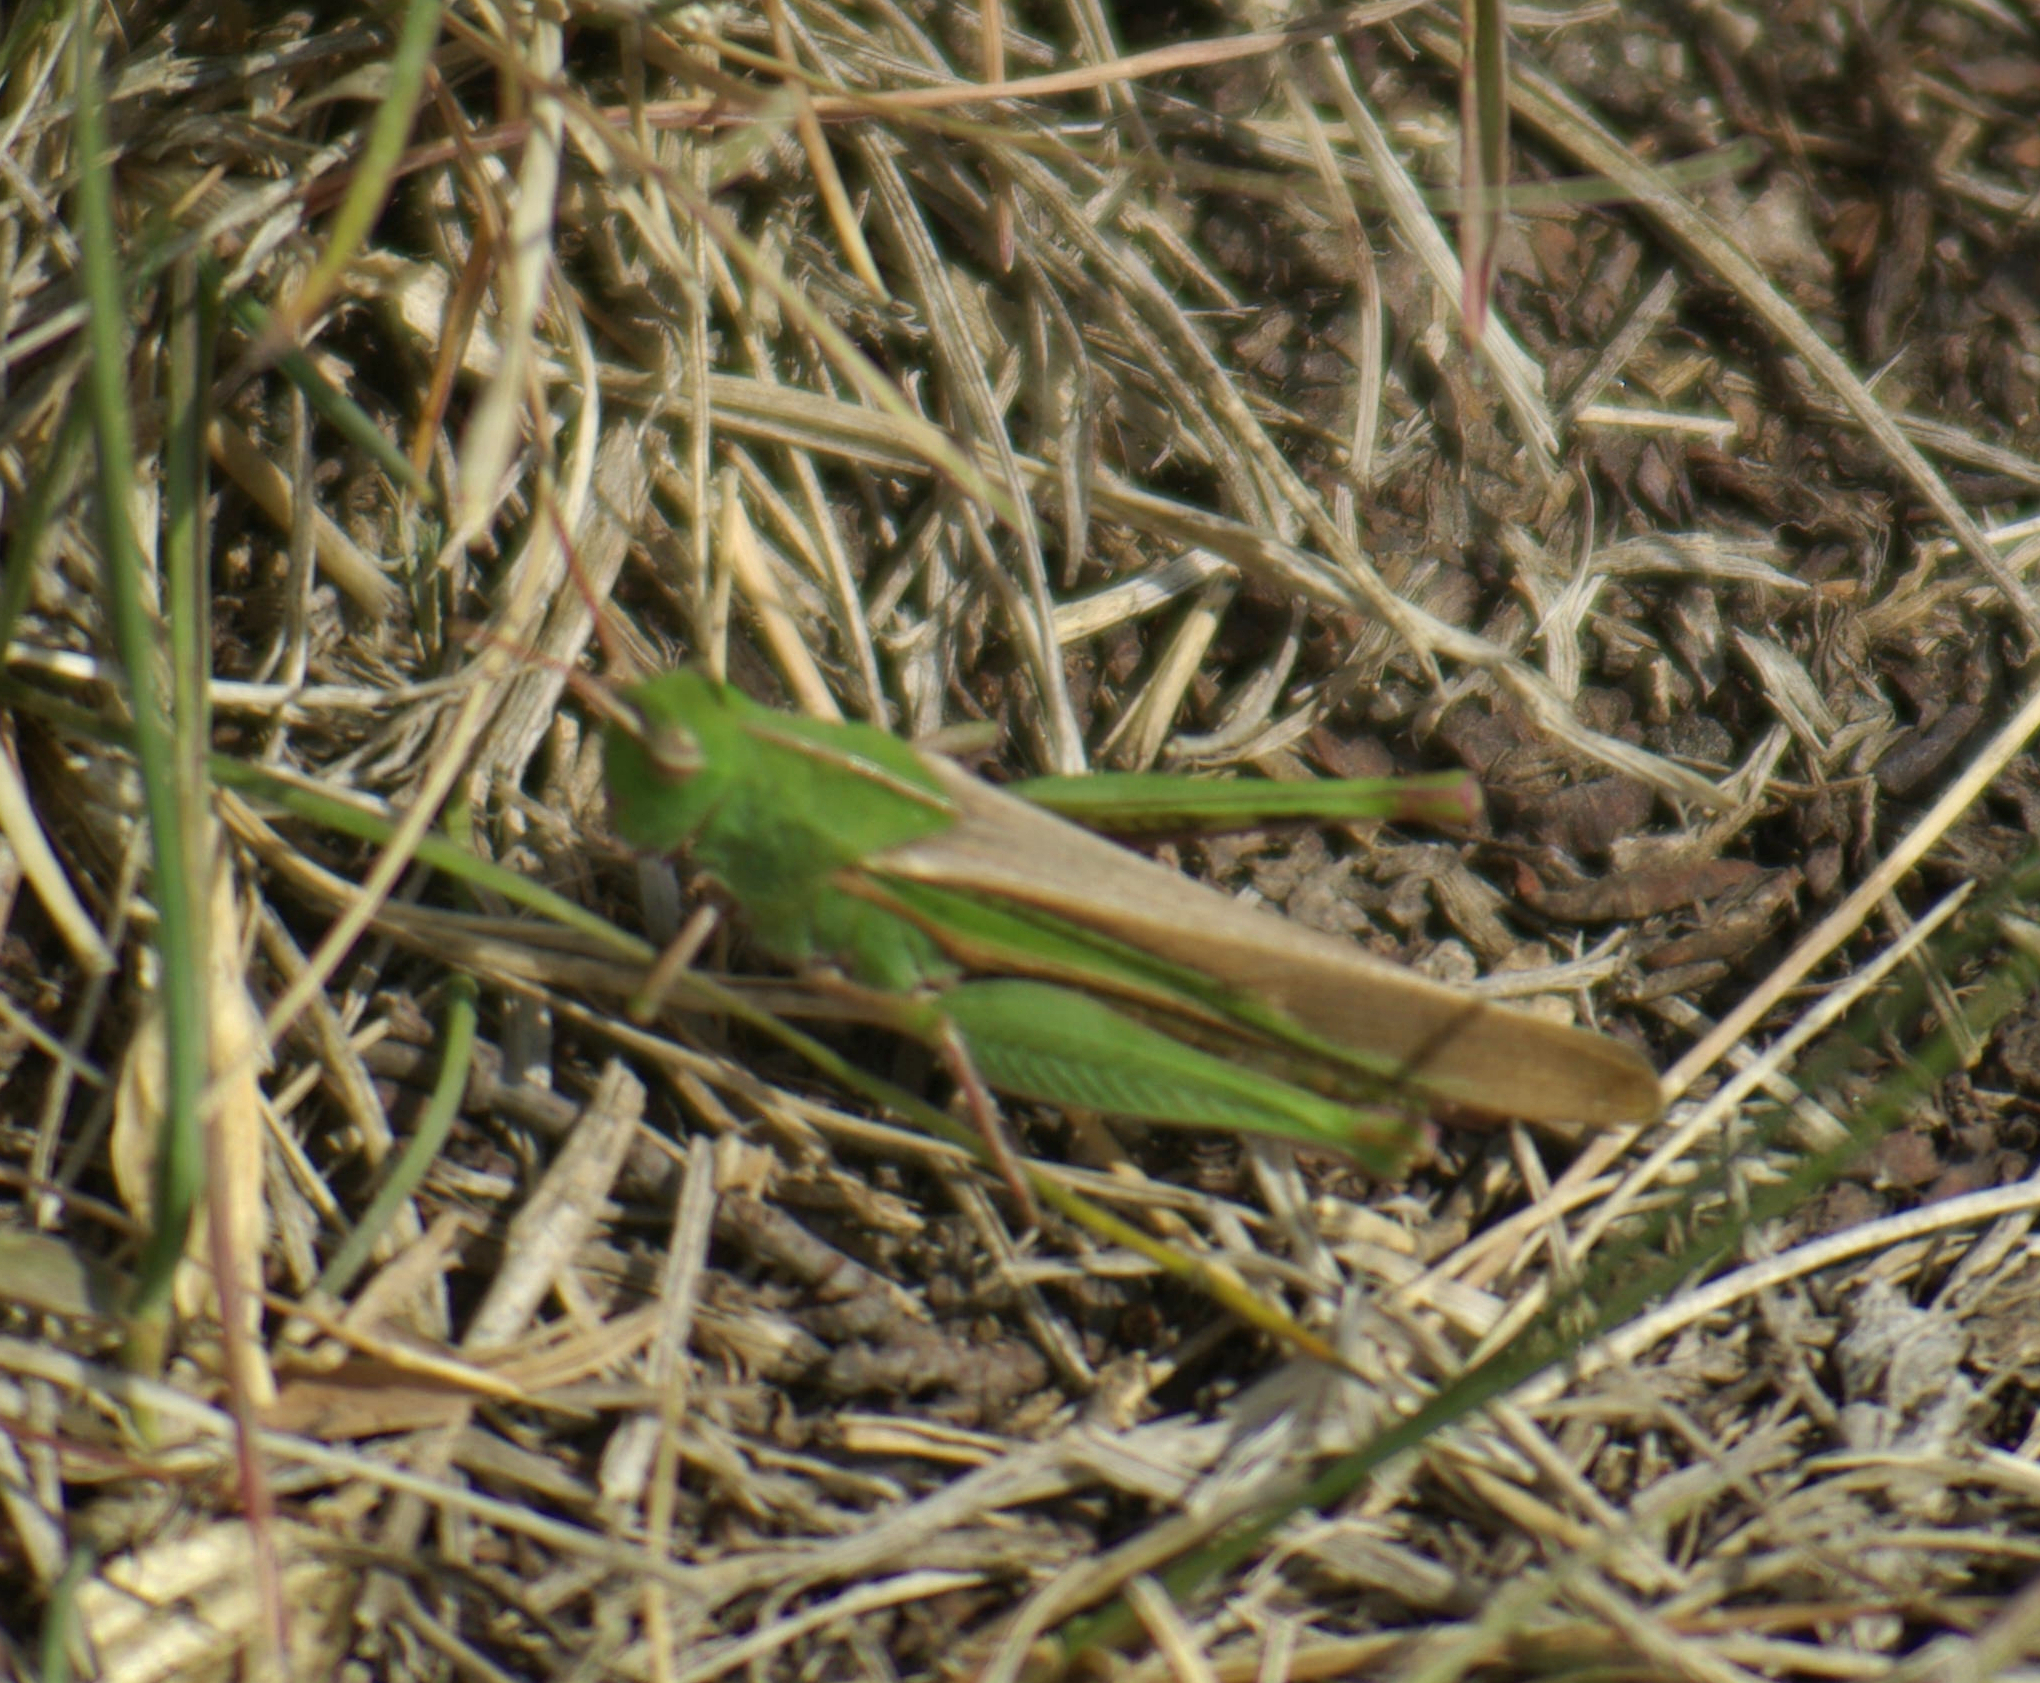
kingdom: Animalia
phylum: Arthropoda
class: Insecta
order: Orthoptera
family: Acrididae
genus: Chortophaga
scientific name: Chortophaga viridifasciata
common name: Green-striped grasshopper
